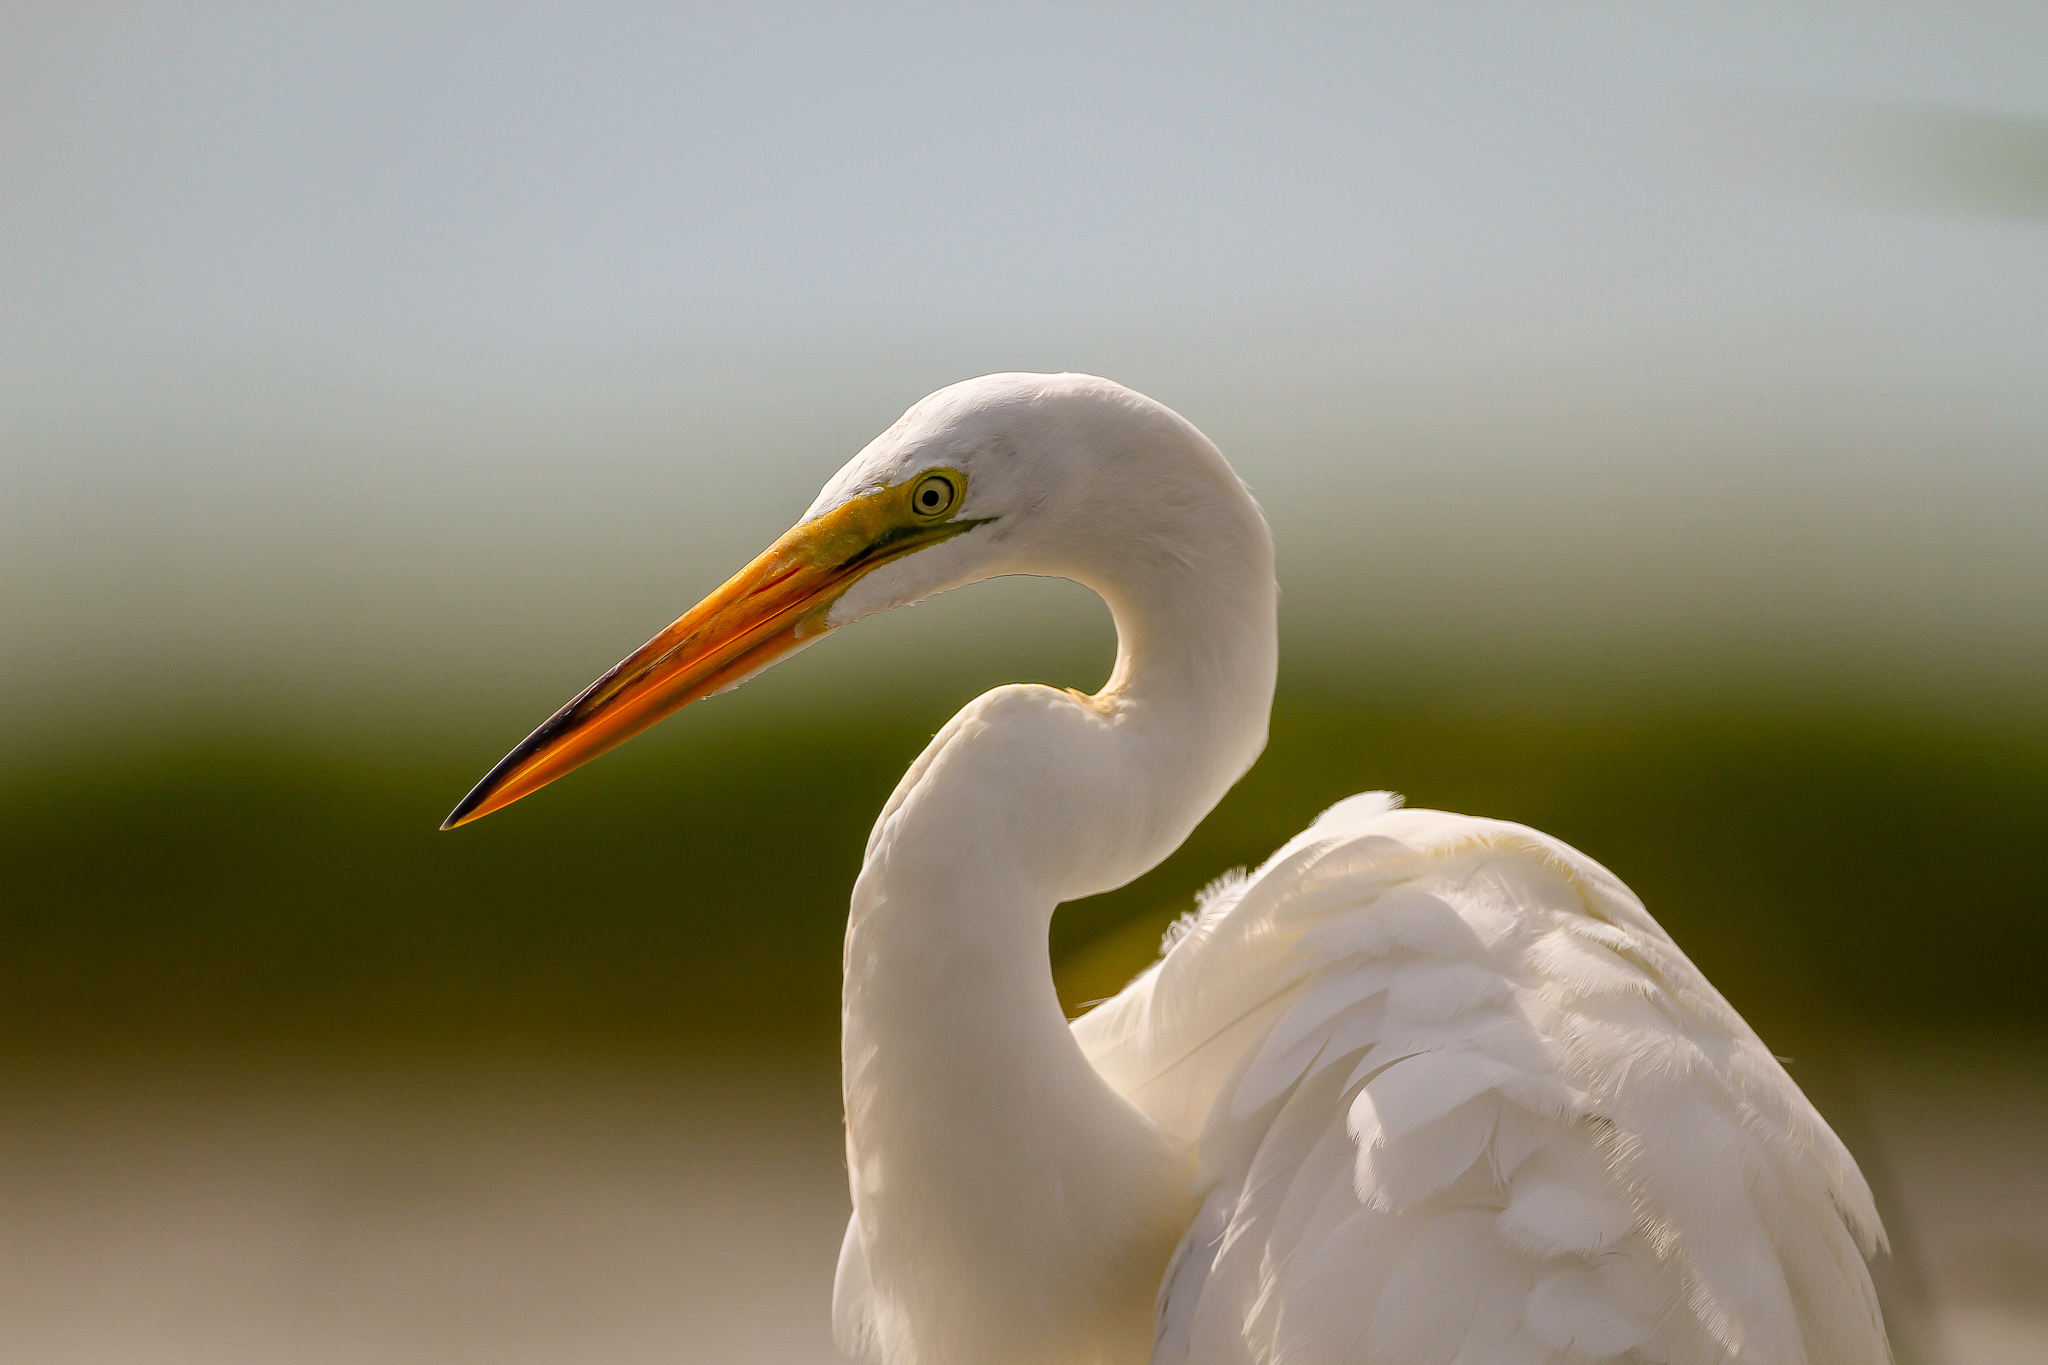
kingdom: Animalia
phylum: Chordata
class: Aves
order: Pelecaniformes
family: Ardeidae
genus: Ardea
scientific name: Ardea alba
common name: Great egret
